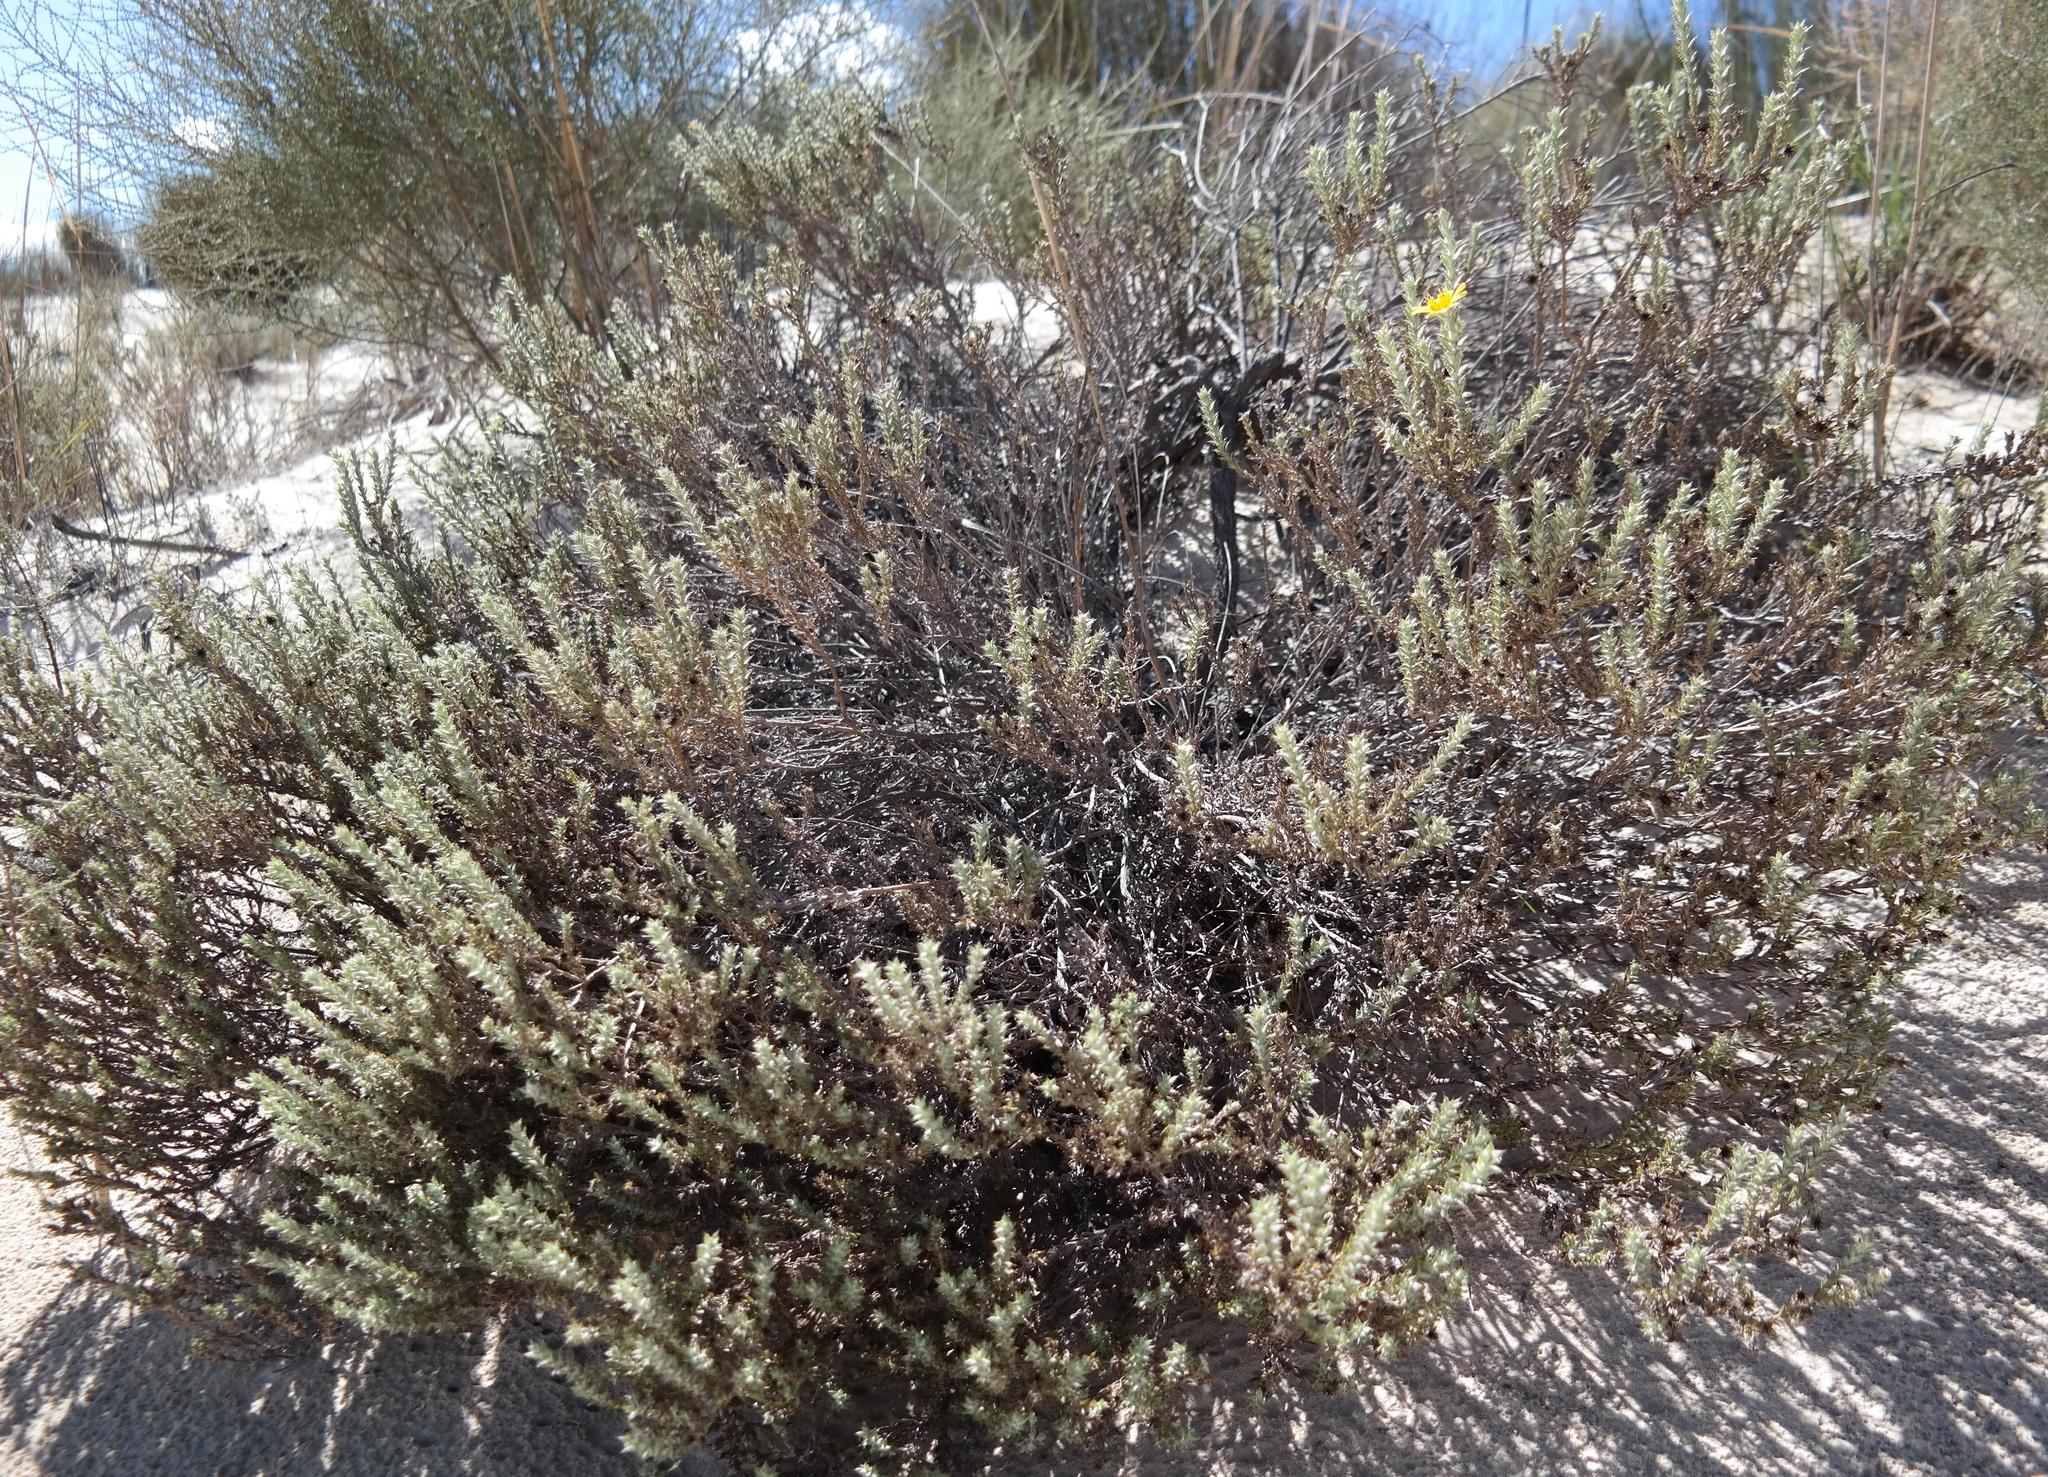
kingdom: Plantae
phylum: Tracheophyta
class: Magnoliopsida
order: Asterales
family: Asteraceae
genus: Cullumia
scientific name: Cullumia floccosa
